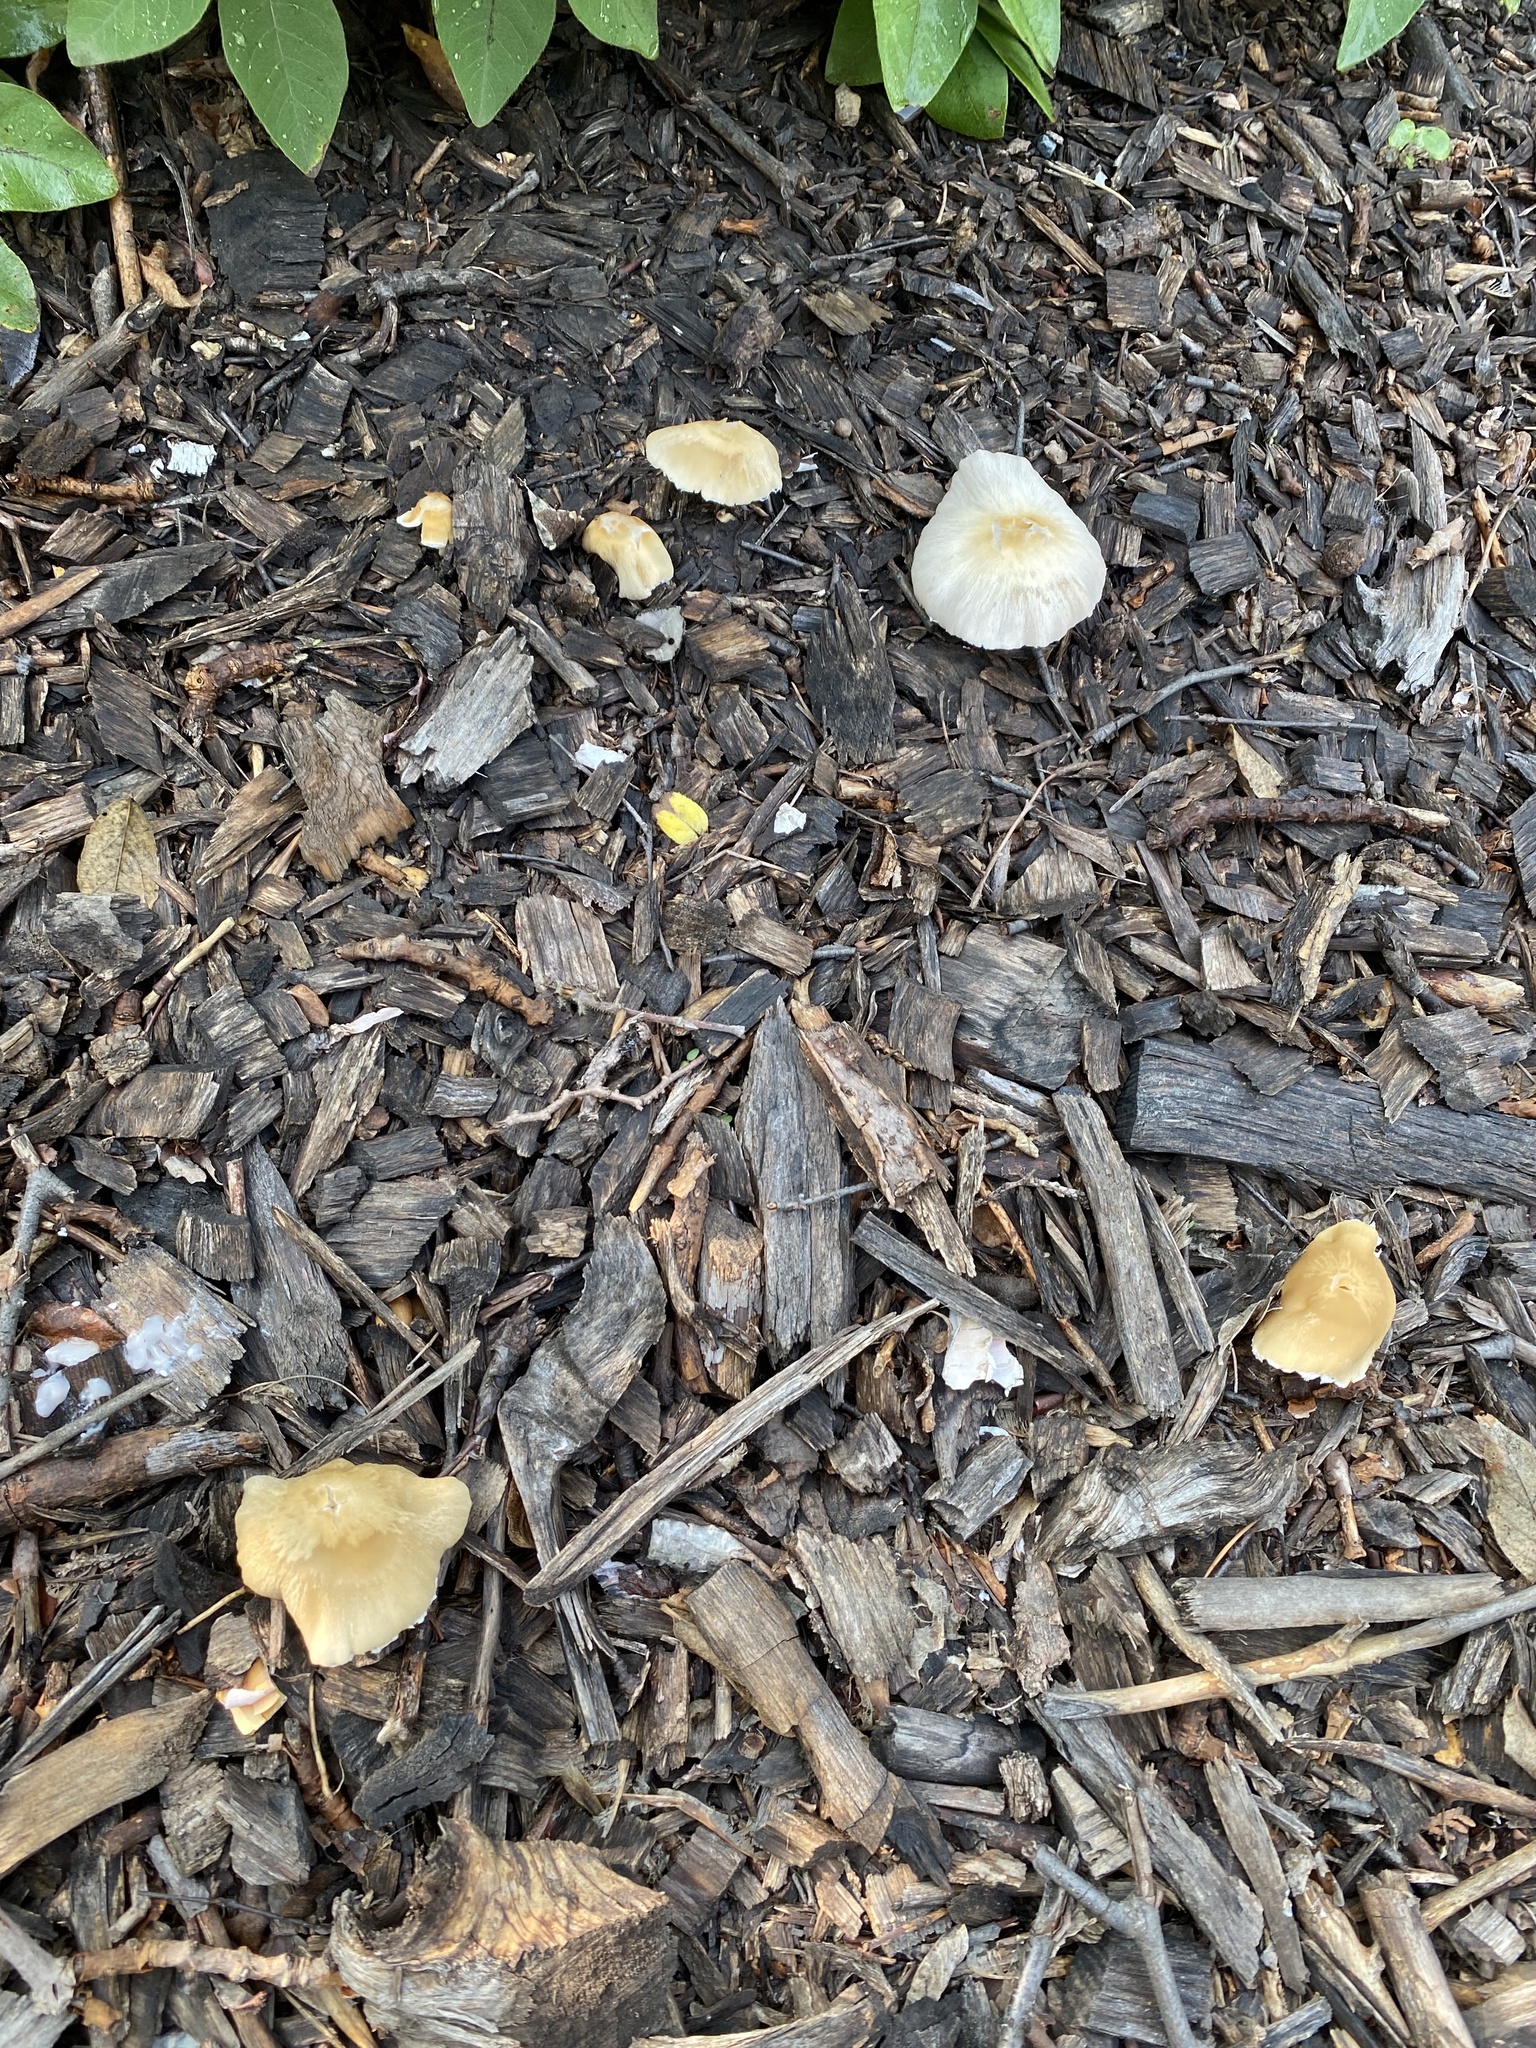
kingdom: Fungi
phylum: Basidiomycota
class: Agaricomycetes
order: Agaricales
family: Psathyrellaceae
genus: Candolleomyces
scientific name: Candolleomyces candolleanus
